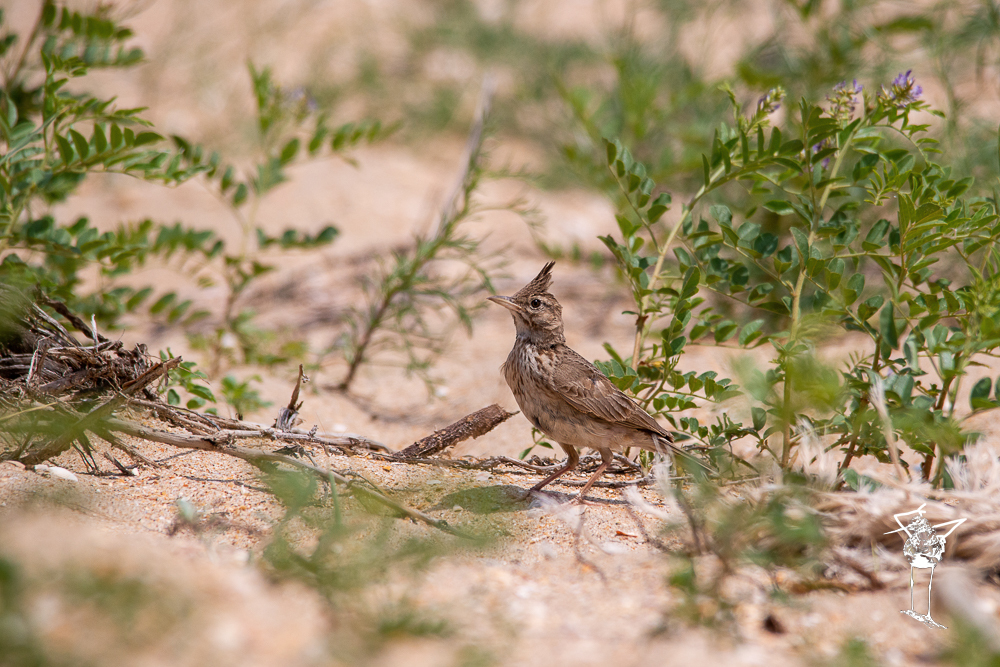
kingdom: Animalia
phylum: Chordata
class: Aves
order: Passeriformes
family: Alaudidae
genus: Galerida
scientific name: Galerida cristata
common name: Crested lark
